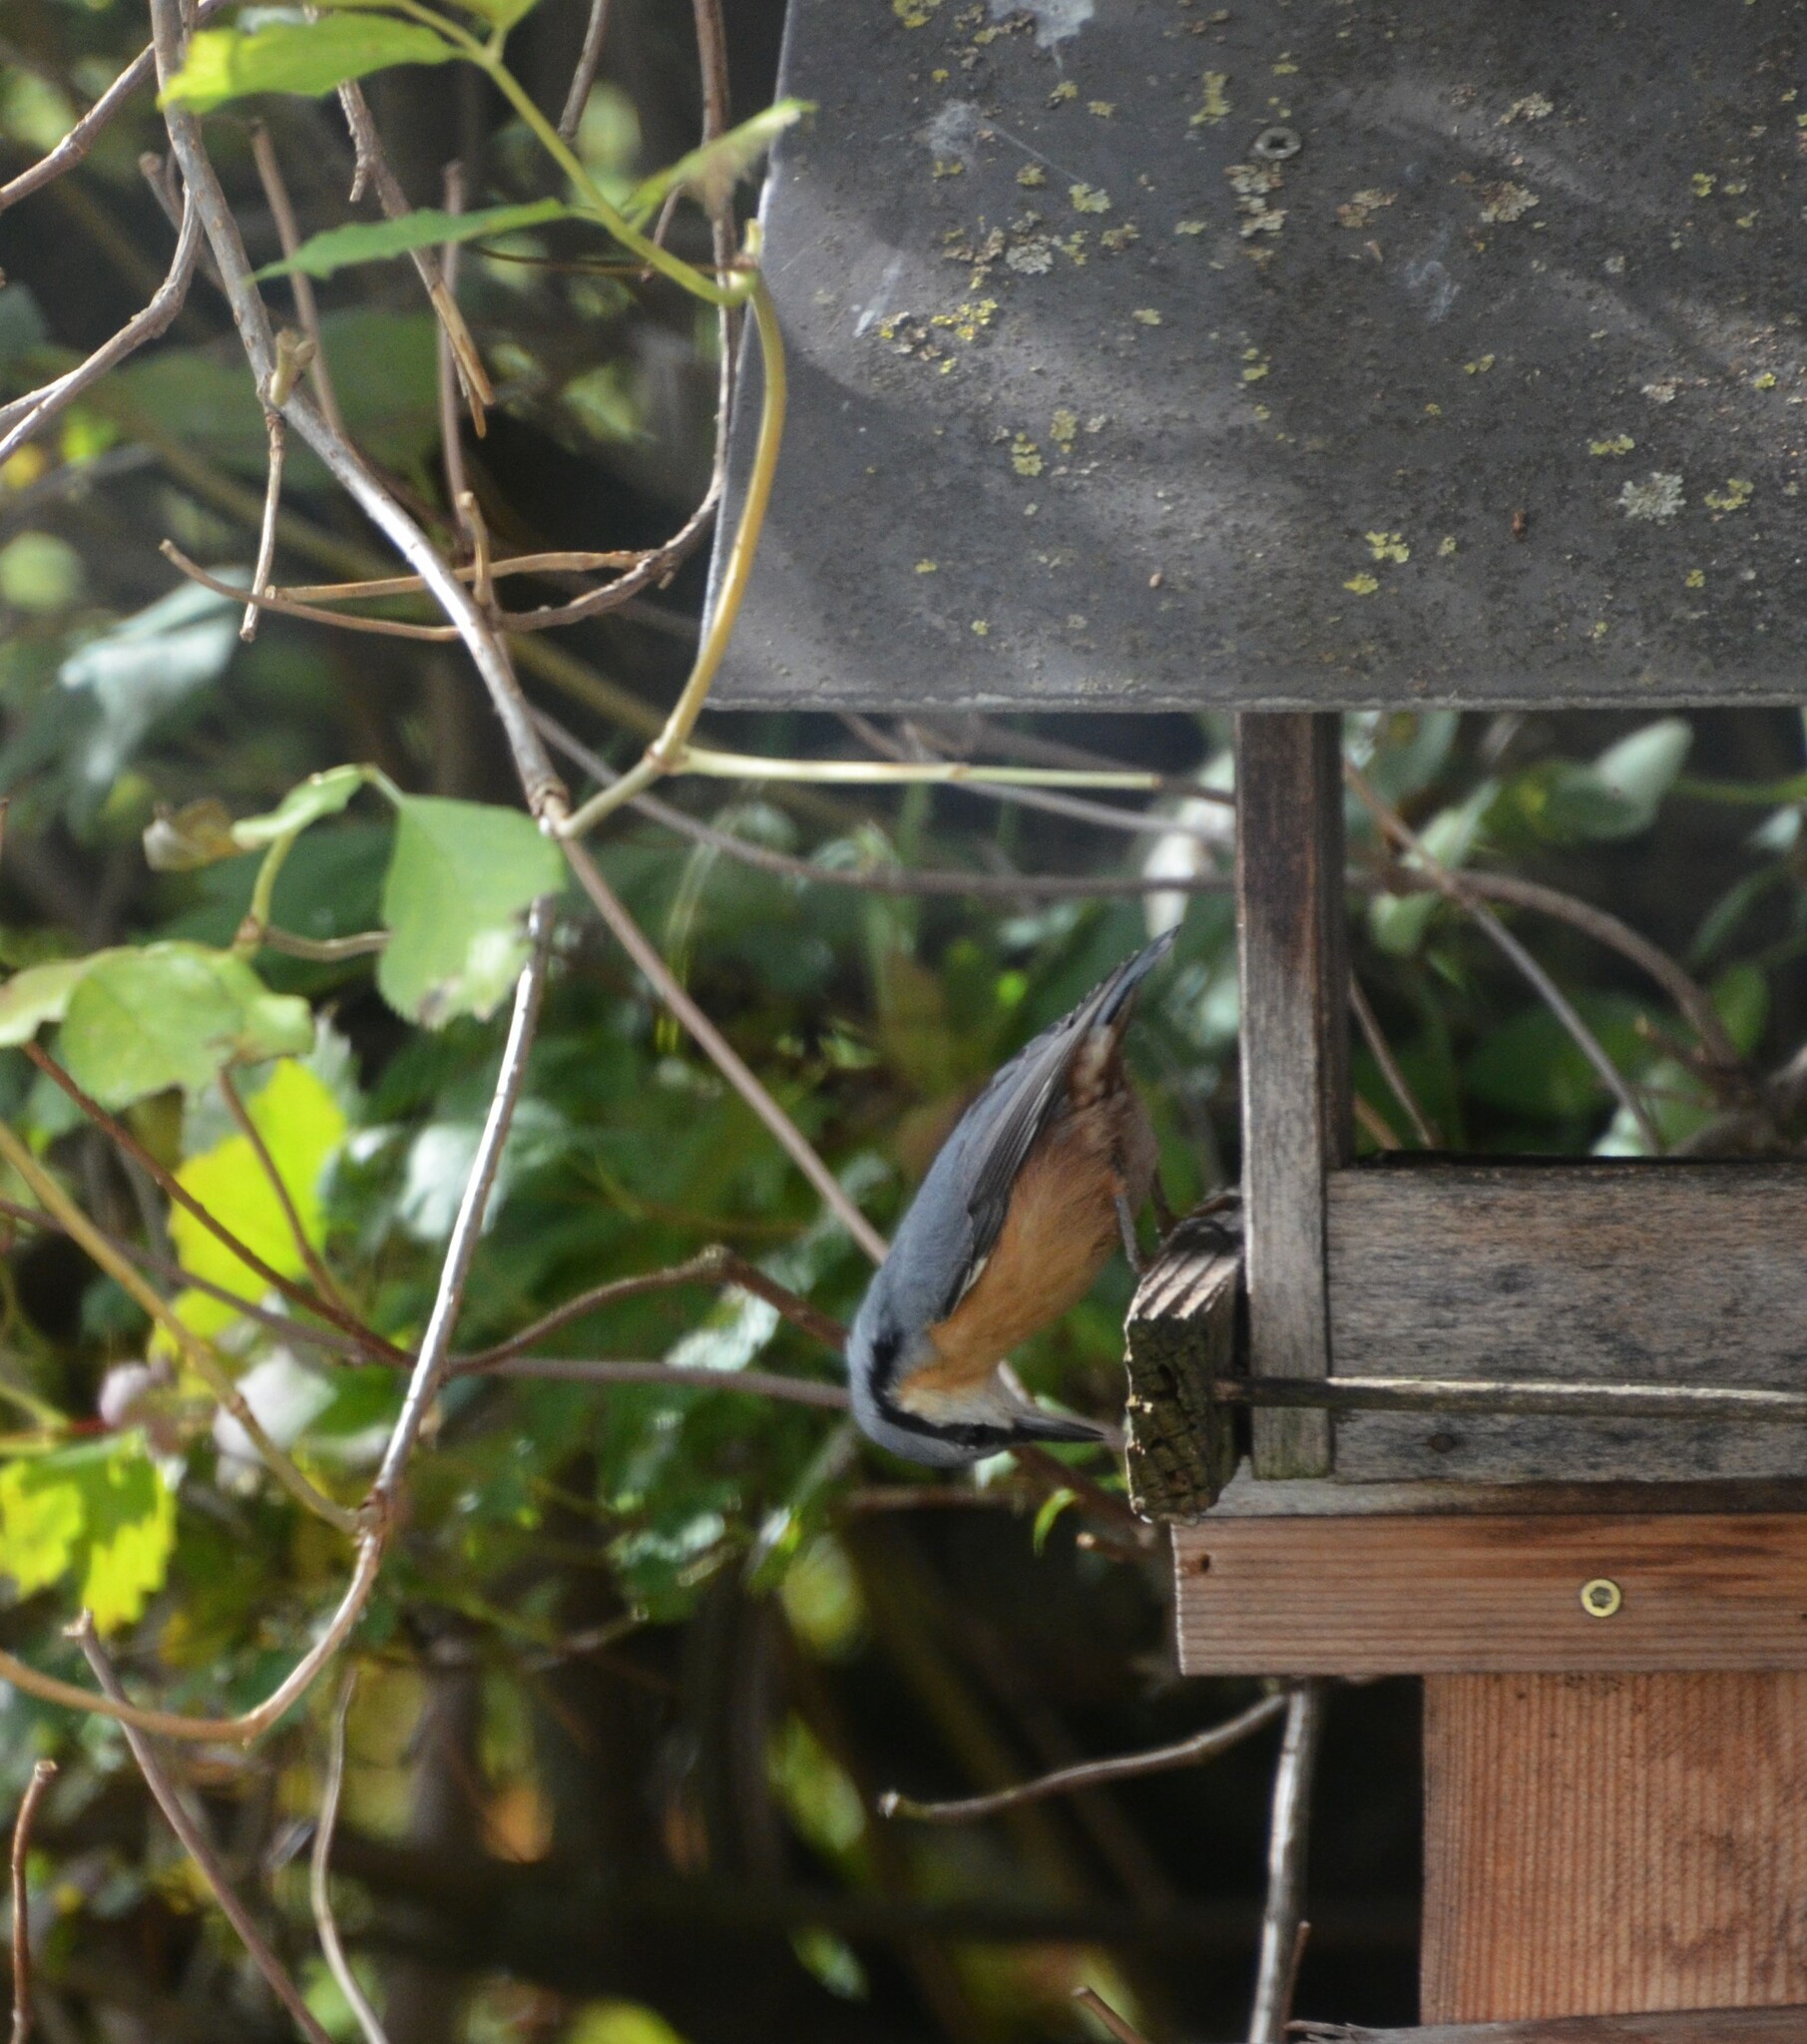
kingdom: Animalia
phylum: Chordata
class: Aves
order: Passeriformes
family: Sittidae
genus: Sitta
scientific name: Sitta europaea
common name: Eurasian nuthatch
